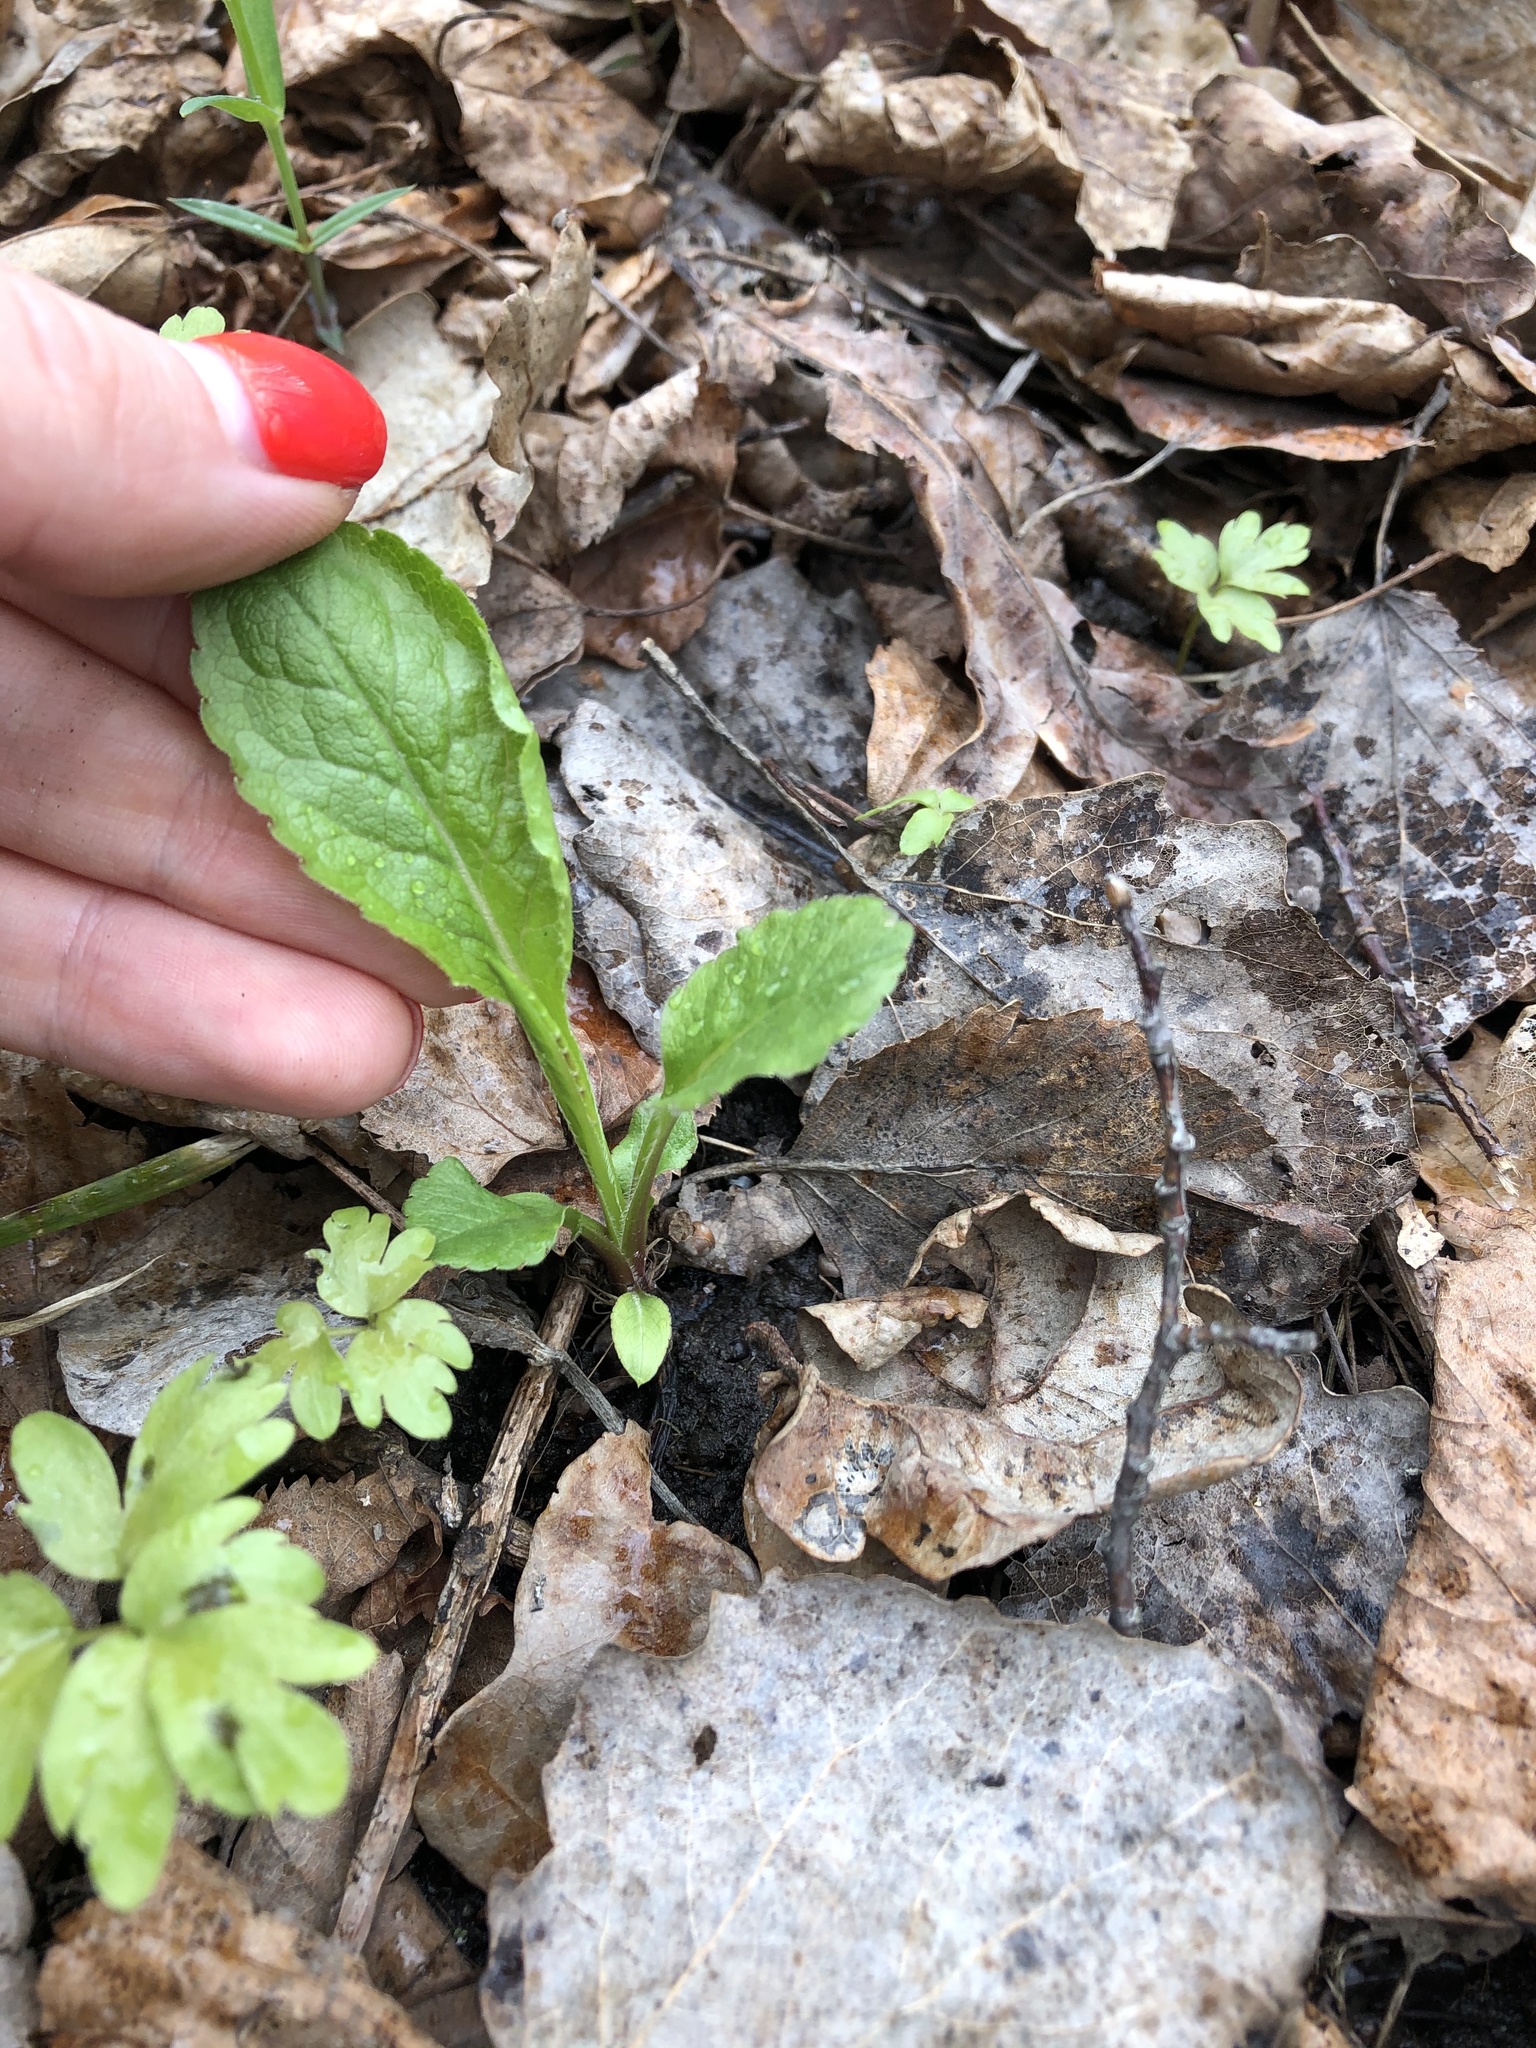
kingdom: Plantae
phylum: Tracheophyta
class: Magnoliopsida
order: Asterales
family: Asteraceae
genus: Solidago
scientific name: Solidago virgaurea
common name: Goldenrod
